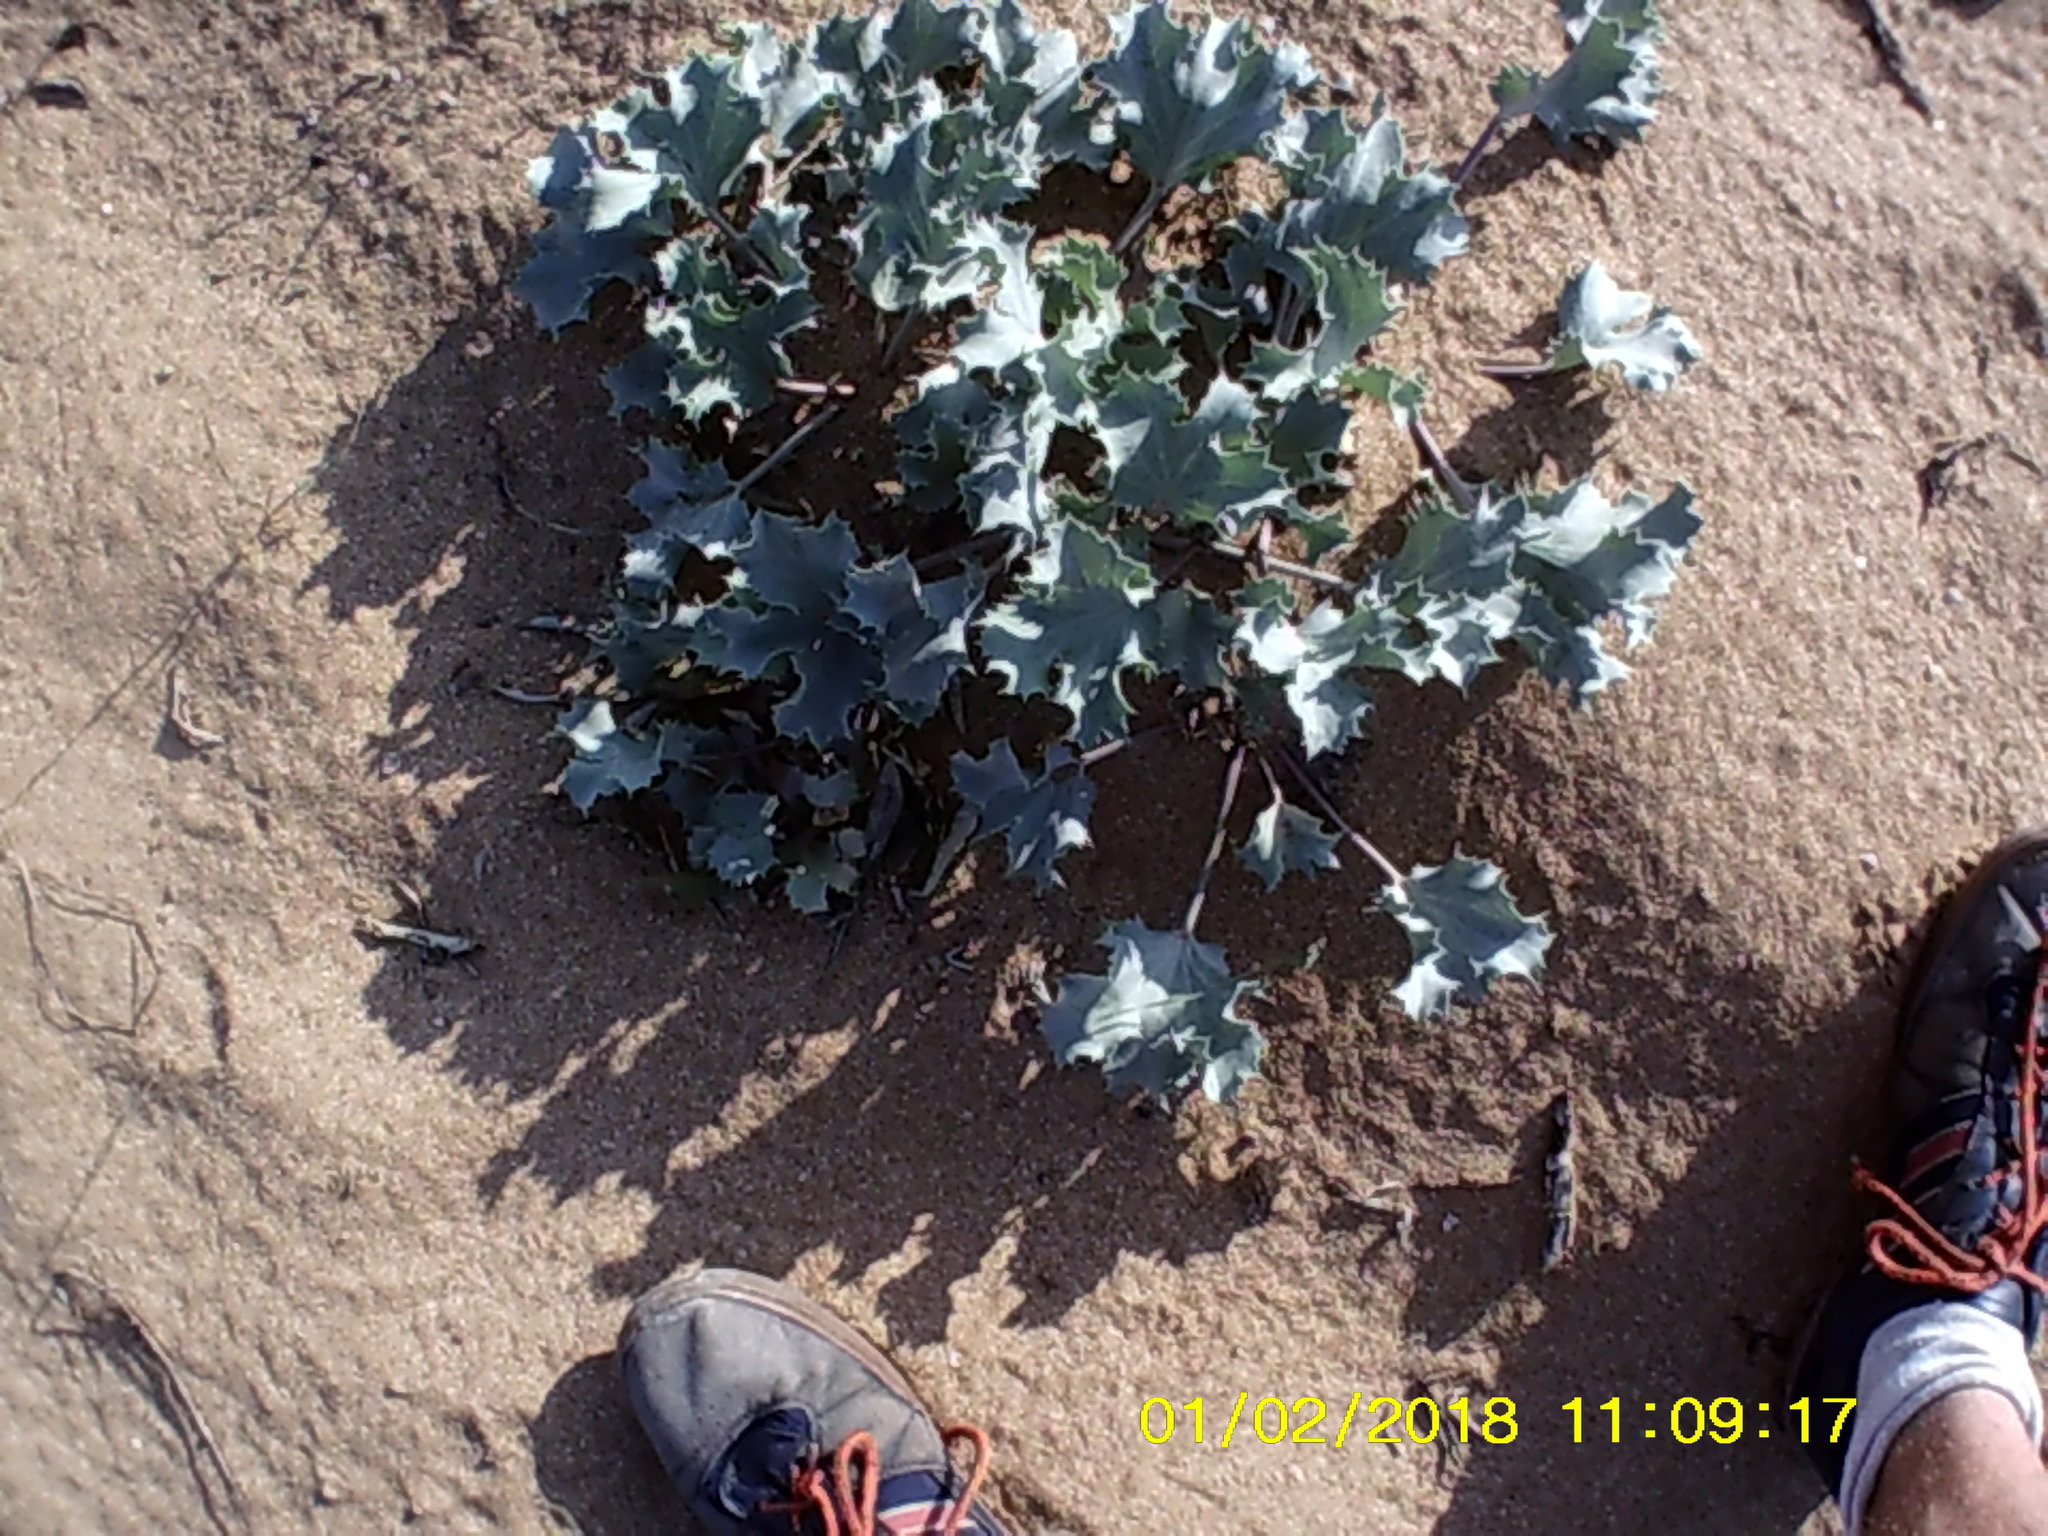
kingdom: Plantae
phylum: Tracheophyta
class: Magnoliopsida
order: Apiales
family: Apiaceae
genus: Eryngium
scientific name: Eryngium maritimum
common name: Sea-holly
